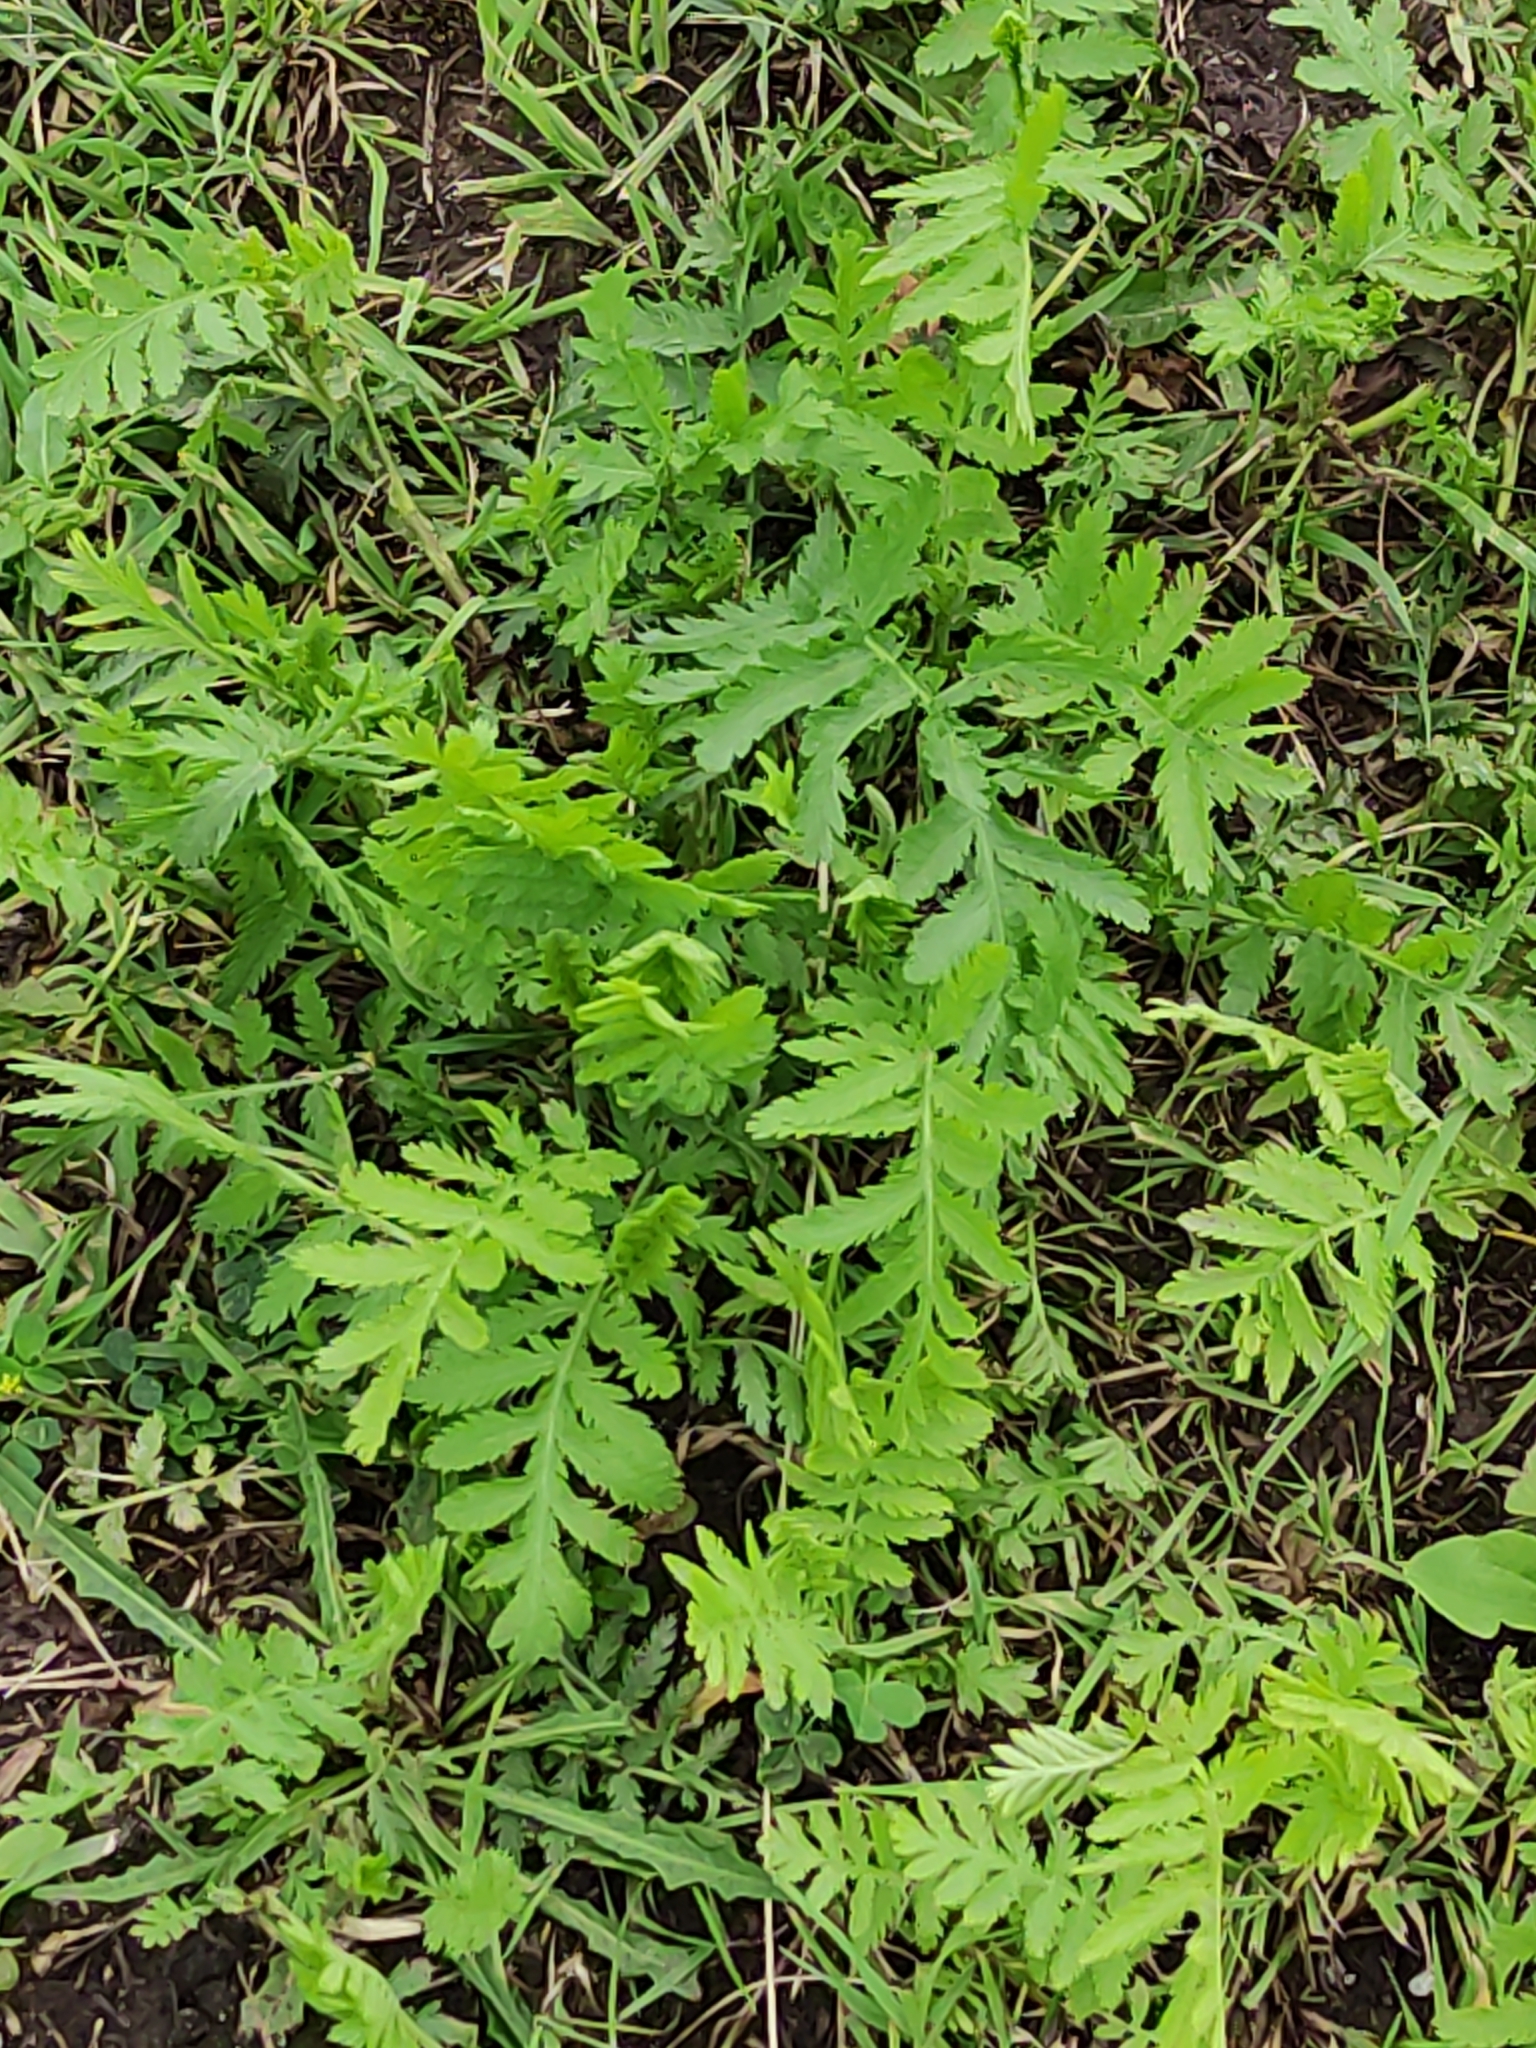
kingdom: Plantae
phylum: Tracheophyta
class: Magnoliopsida
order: Asterales
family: Asteraceae
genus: Tanacetum
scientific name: Tanacetum vulgare
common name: Common tansy
